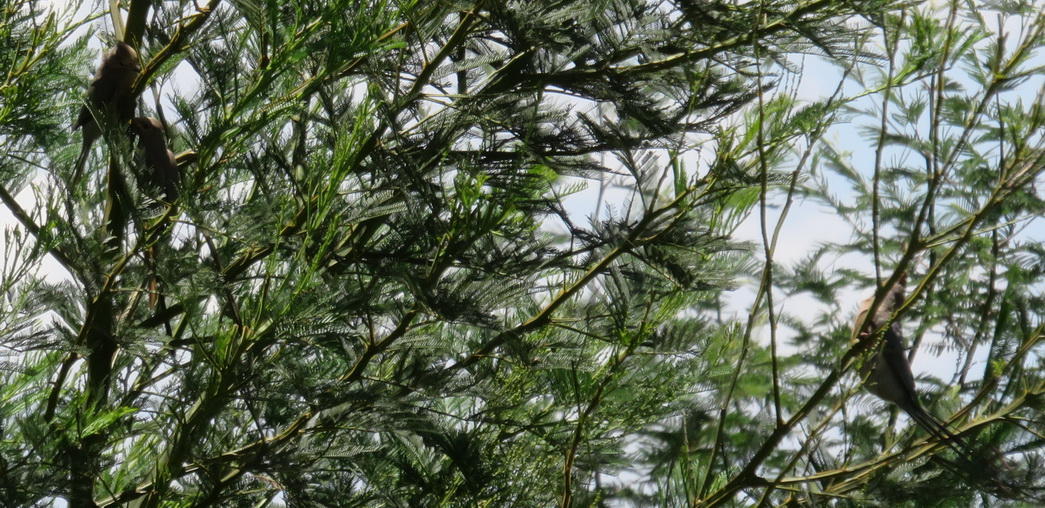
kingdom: Animalia
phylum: Chordata
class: Aves
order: Coliiformes
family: Coliidae
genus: Urocolius
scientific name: Urocolius indicus
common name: Red-faced mousebird
